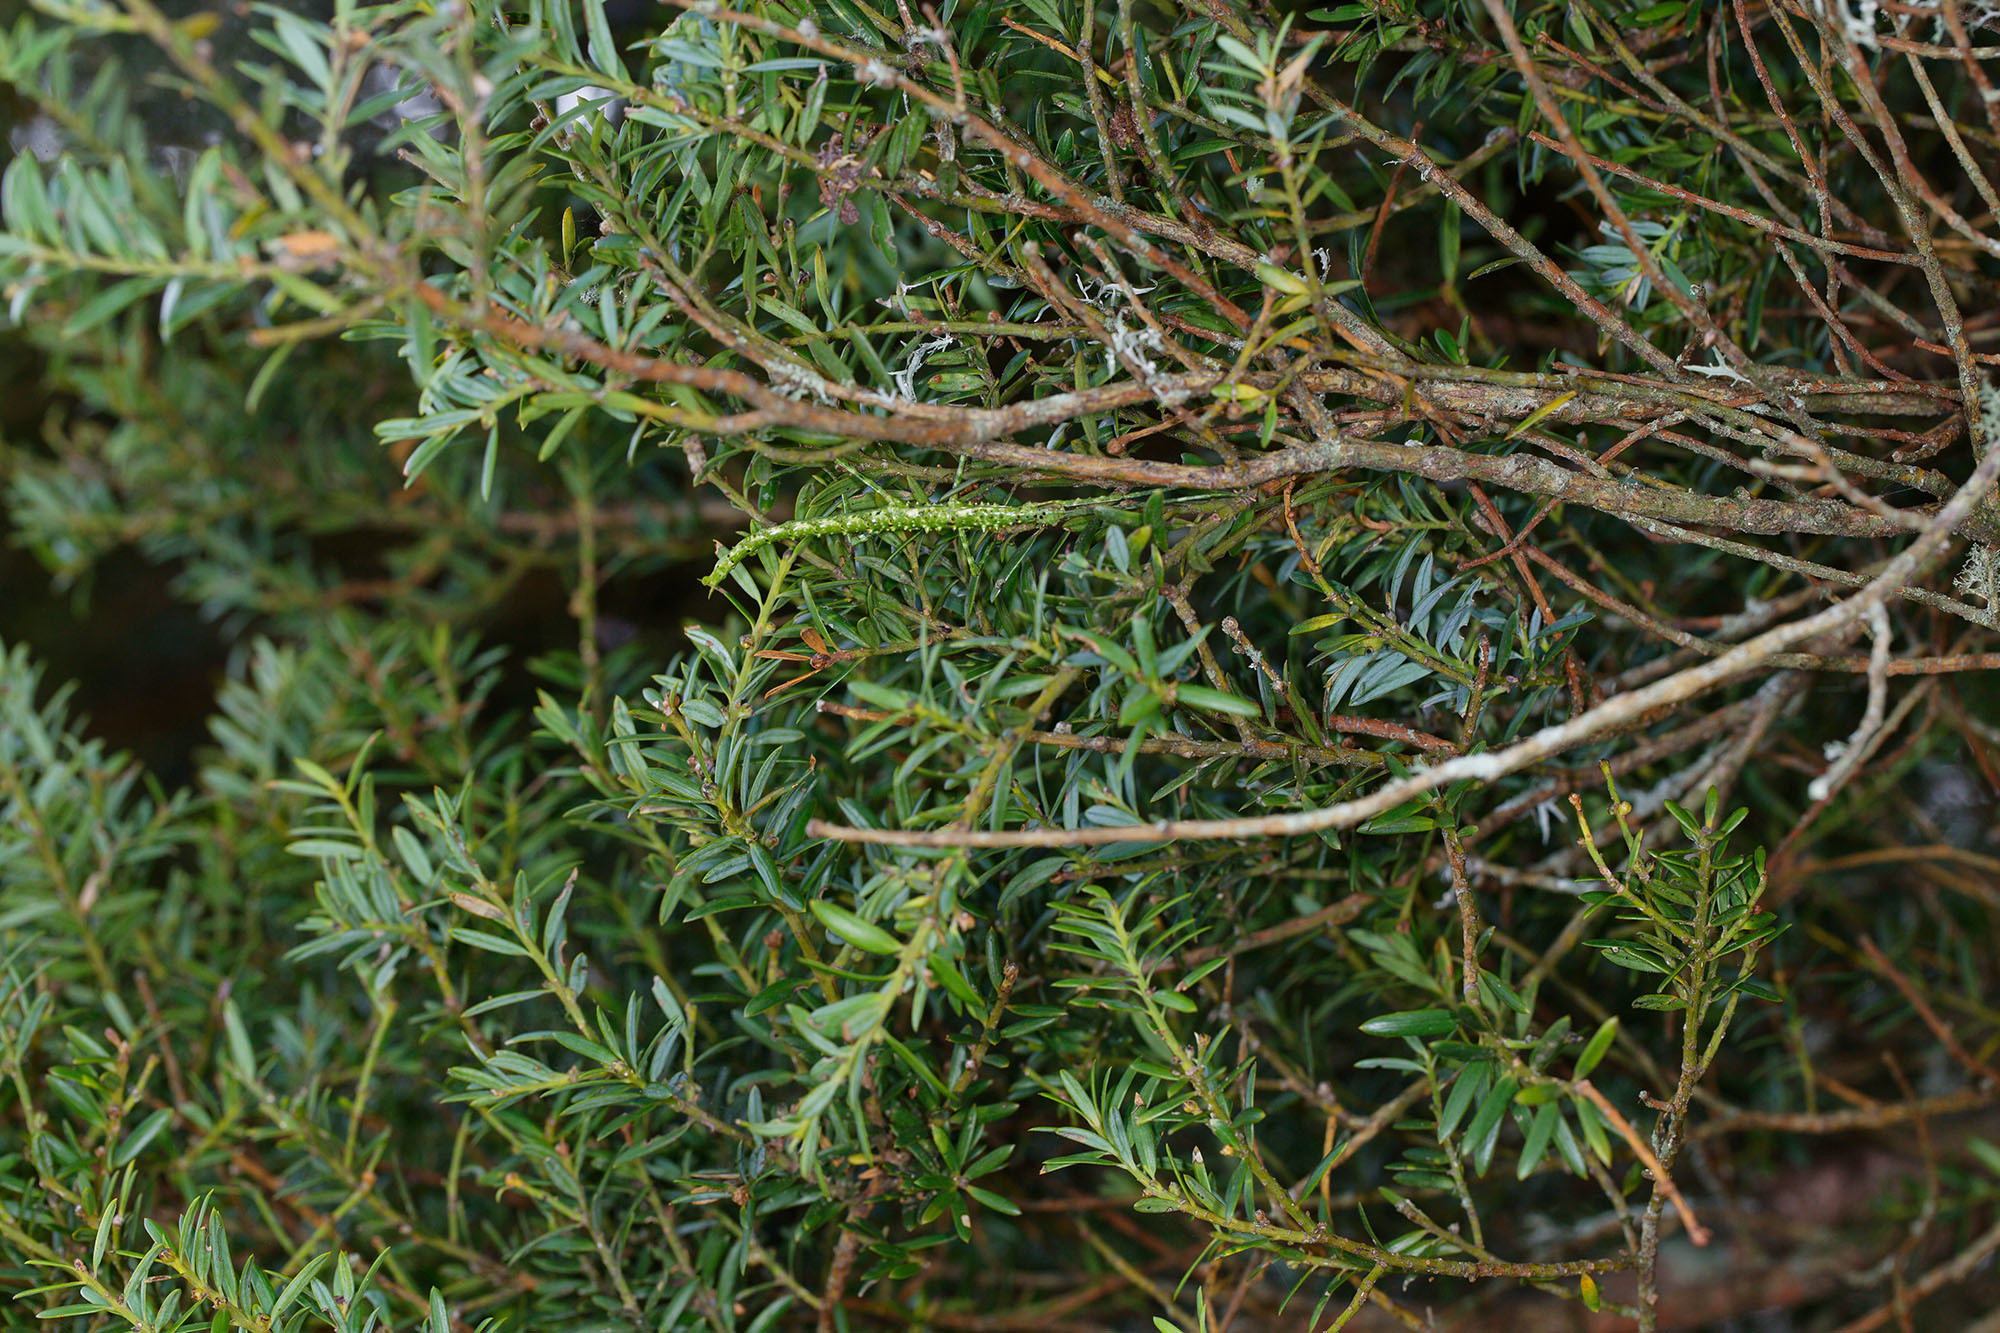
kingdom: Animalia
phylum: Arthropoda
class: Insecta
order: Phasmida
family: Phasmatidae
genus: Acanthoxyla
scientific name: Acanthoxyla prasina
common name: Black-spined stick insect
